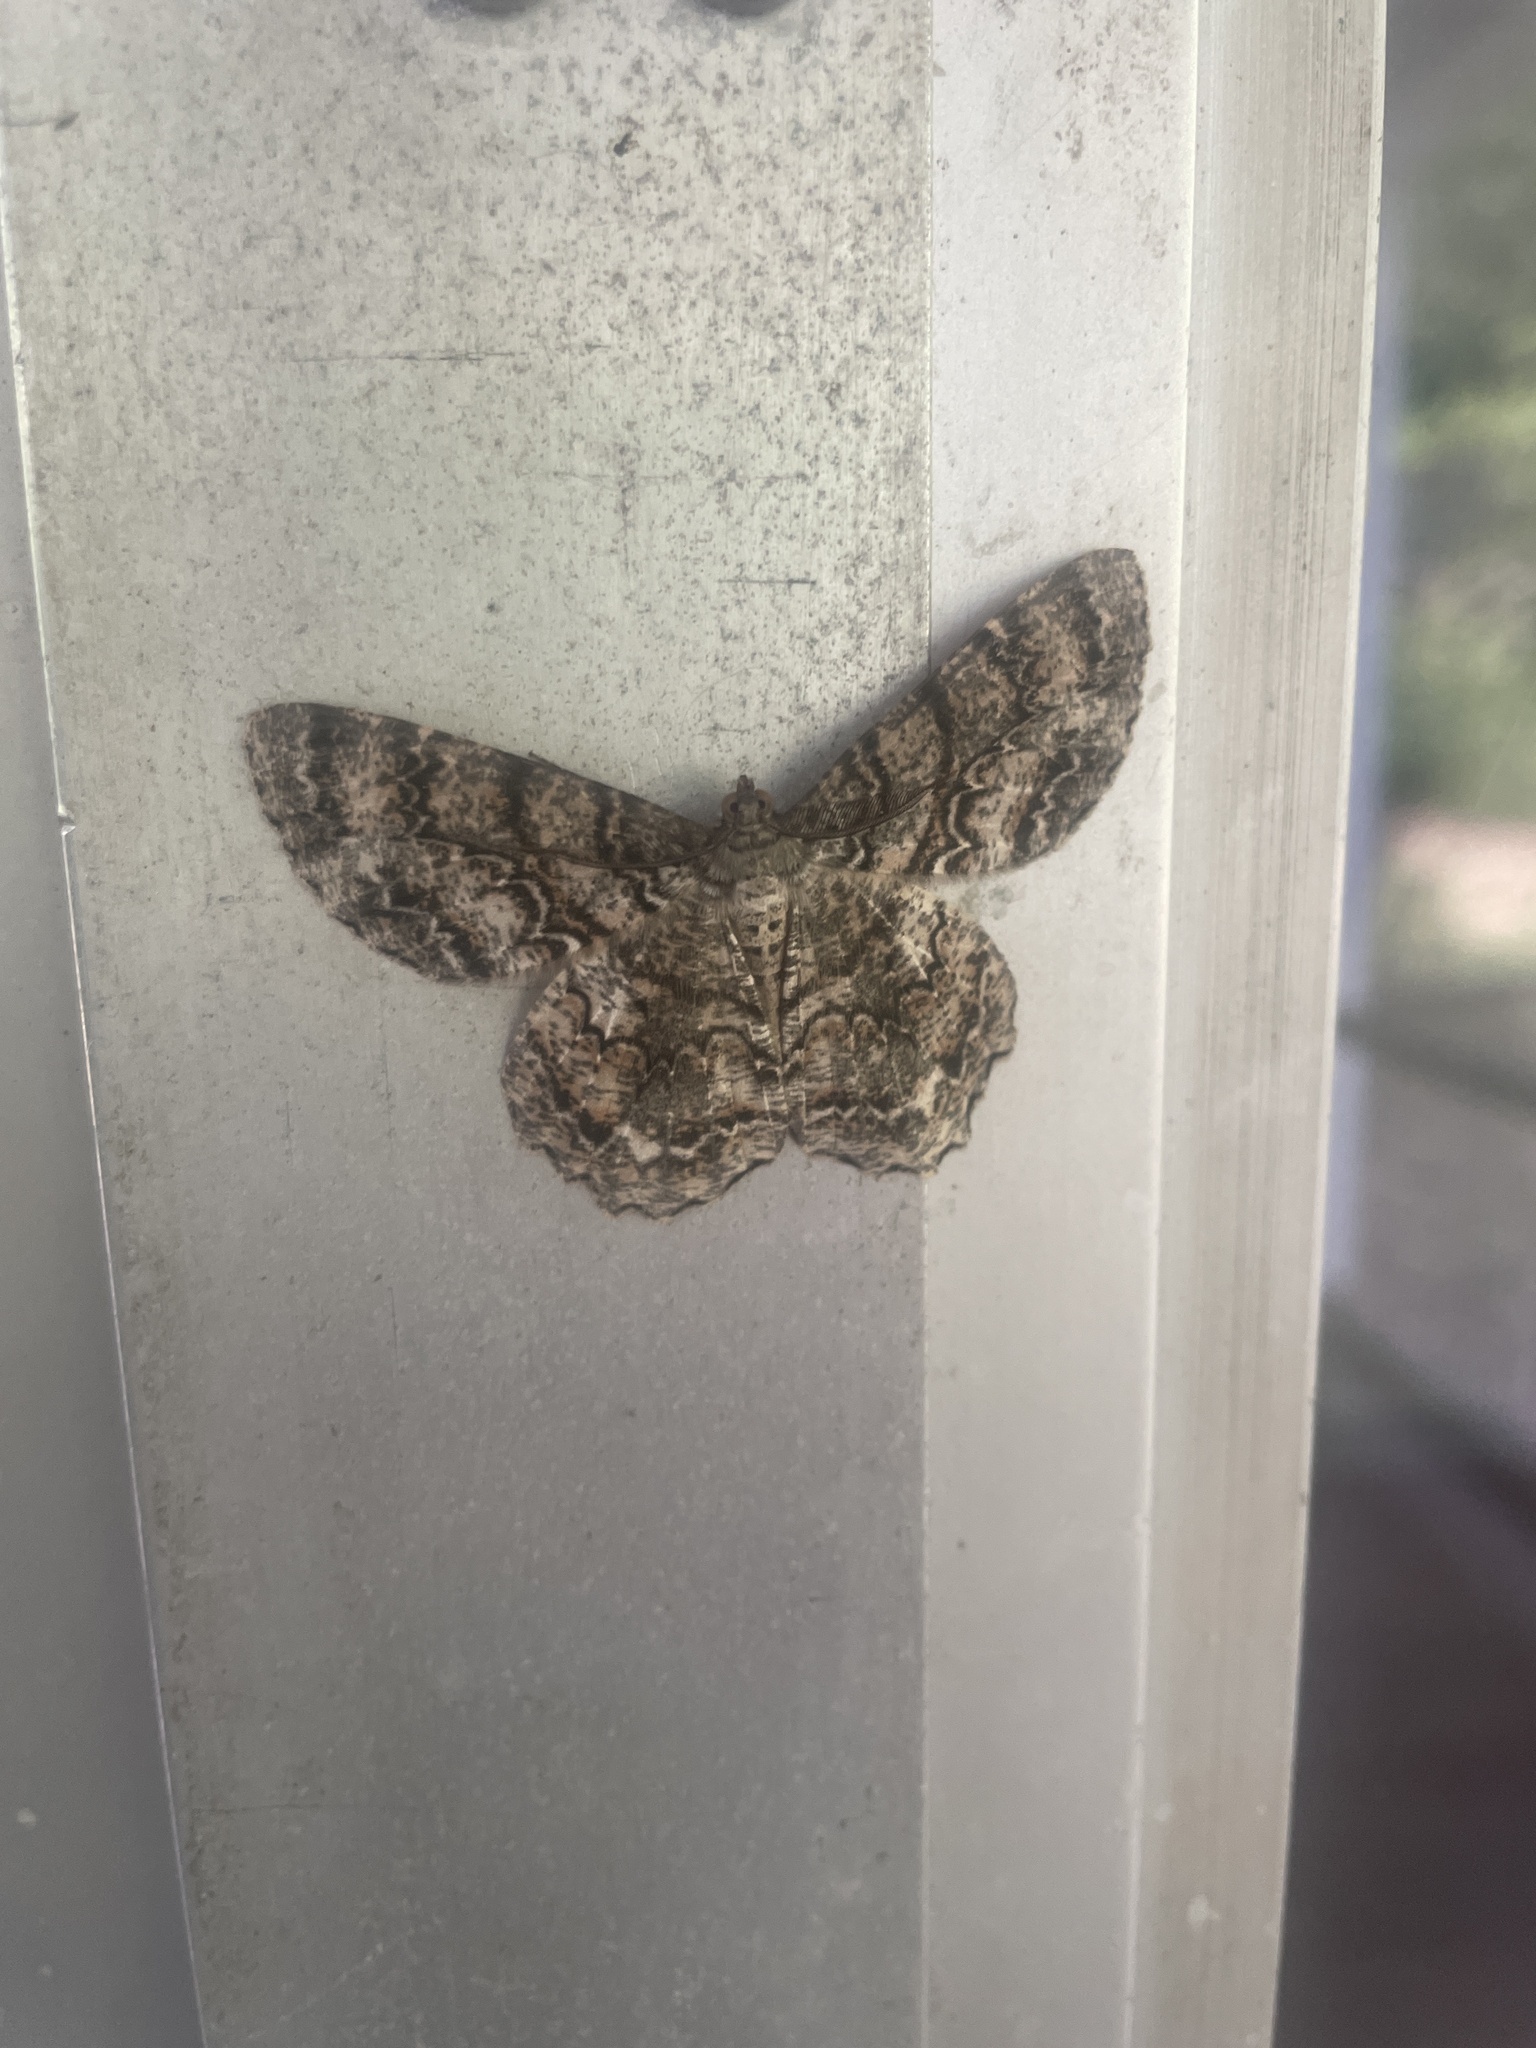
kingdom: Animalia
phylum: Arthropoda
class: Insecta
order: Lepidoptera
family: Geometridae
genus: Epimecis
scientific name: Epimecis hortaria
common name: Tulip-tree beauty
